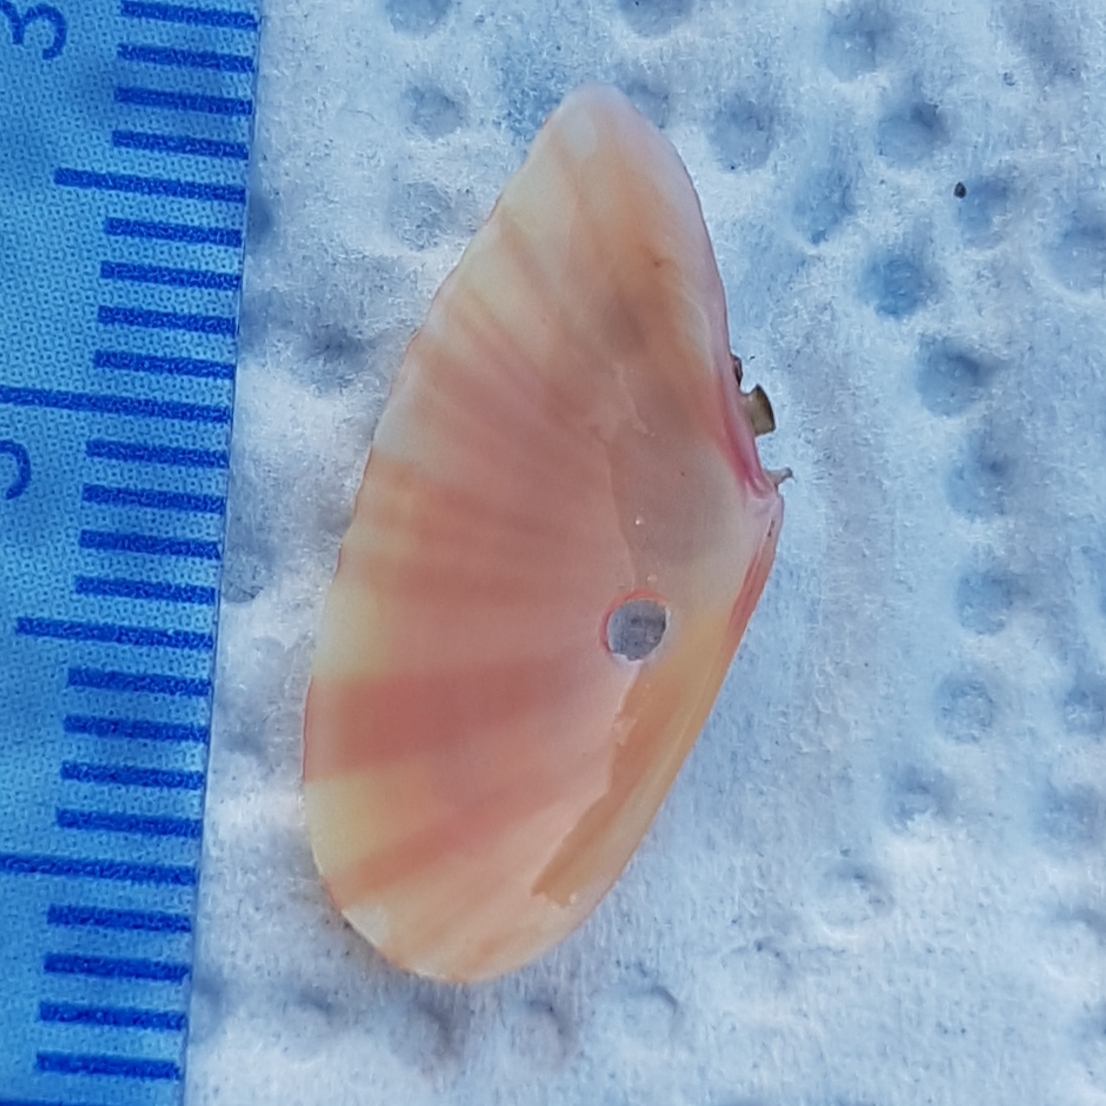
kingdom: Animalia
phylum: Mollusca
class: Bivalvia
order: Cardiida
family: Tellinidae
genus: Moerella
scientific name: Moerella pulchella
